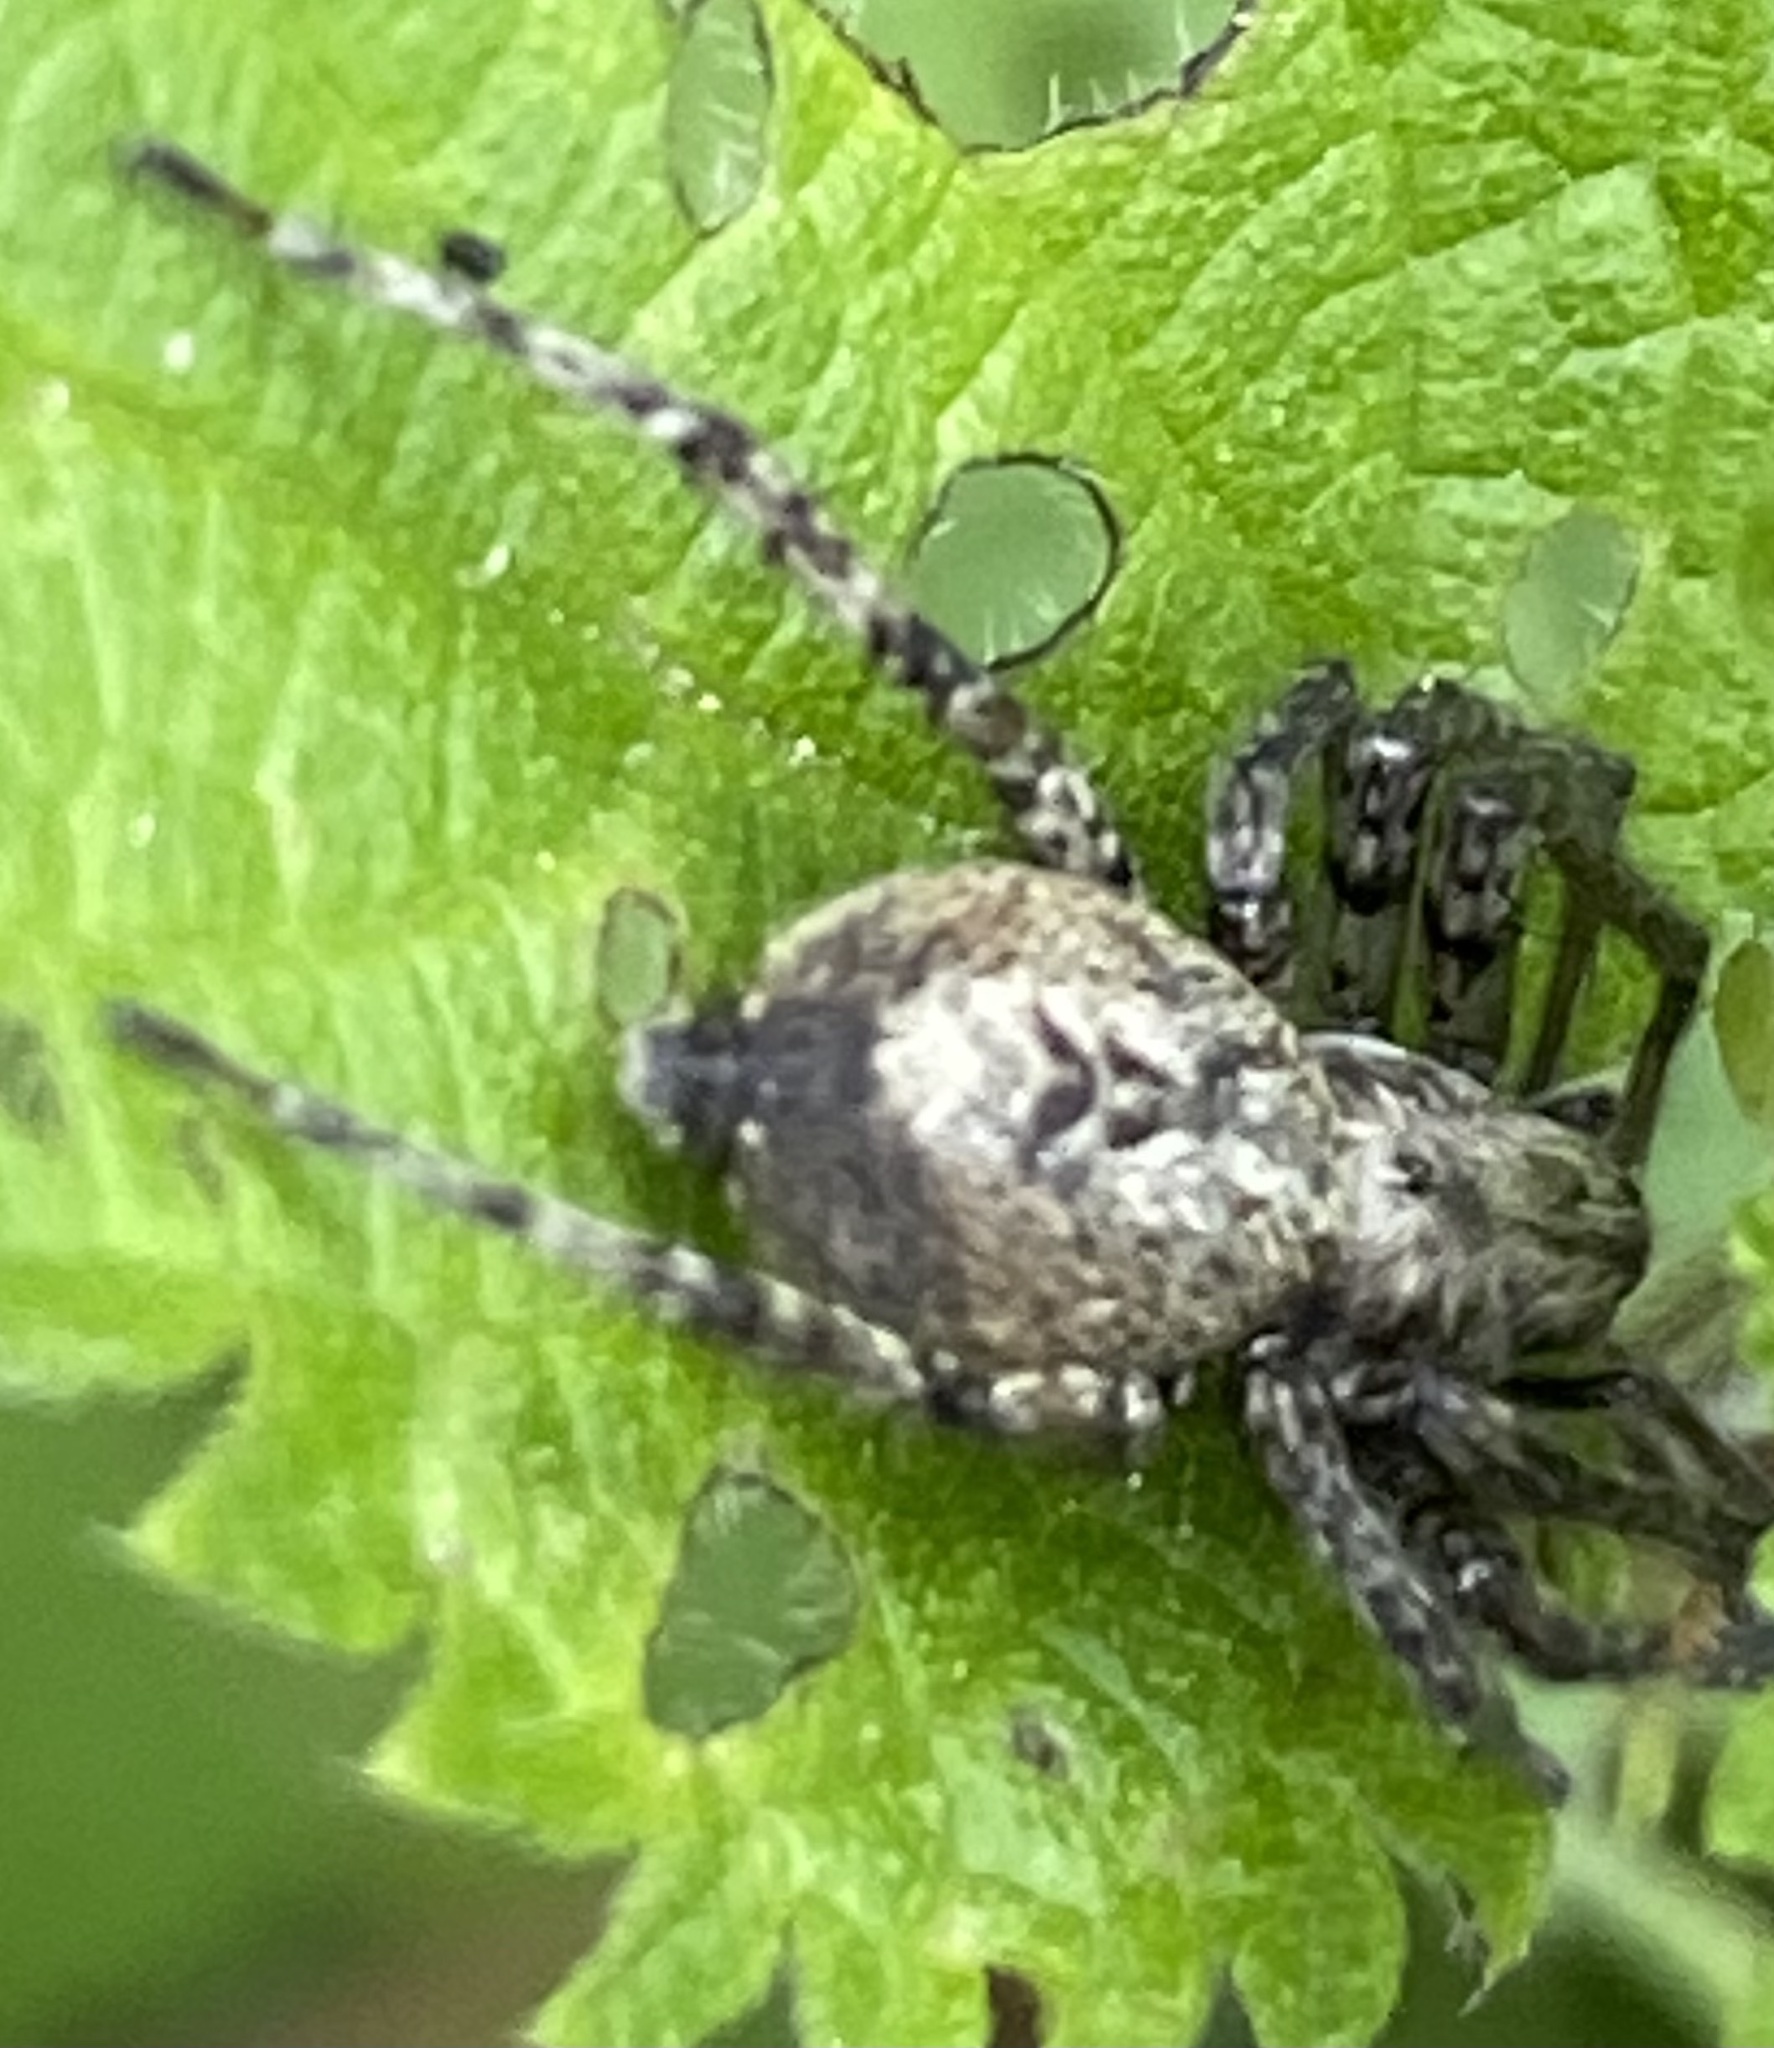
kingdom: Animalia
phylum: Arthropoda
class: Arachnida
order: Araneae
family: Anyphaenidae
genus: Anyphaena
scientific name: Anyphaena accentuata
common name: Buzzing spider
